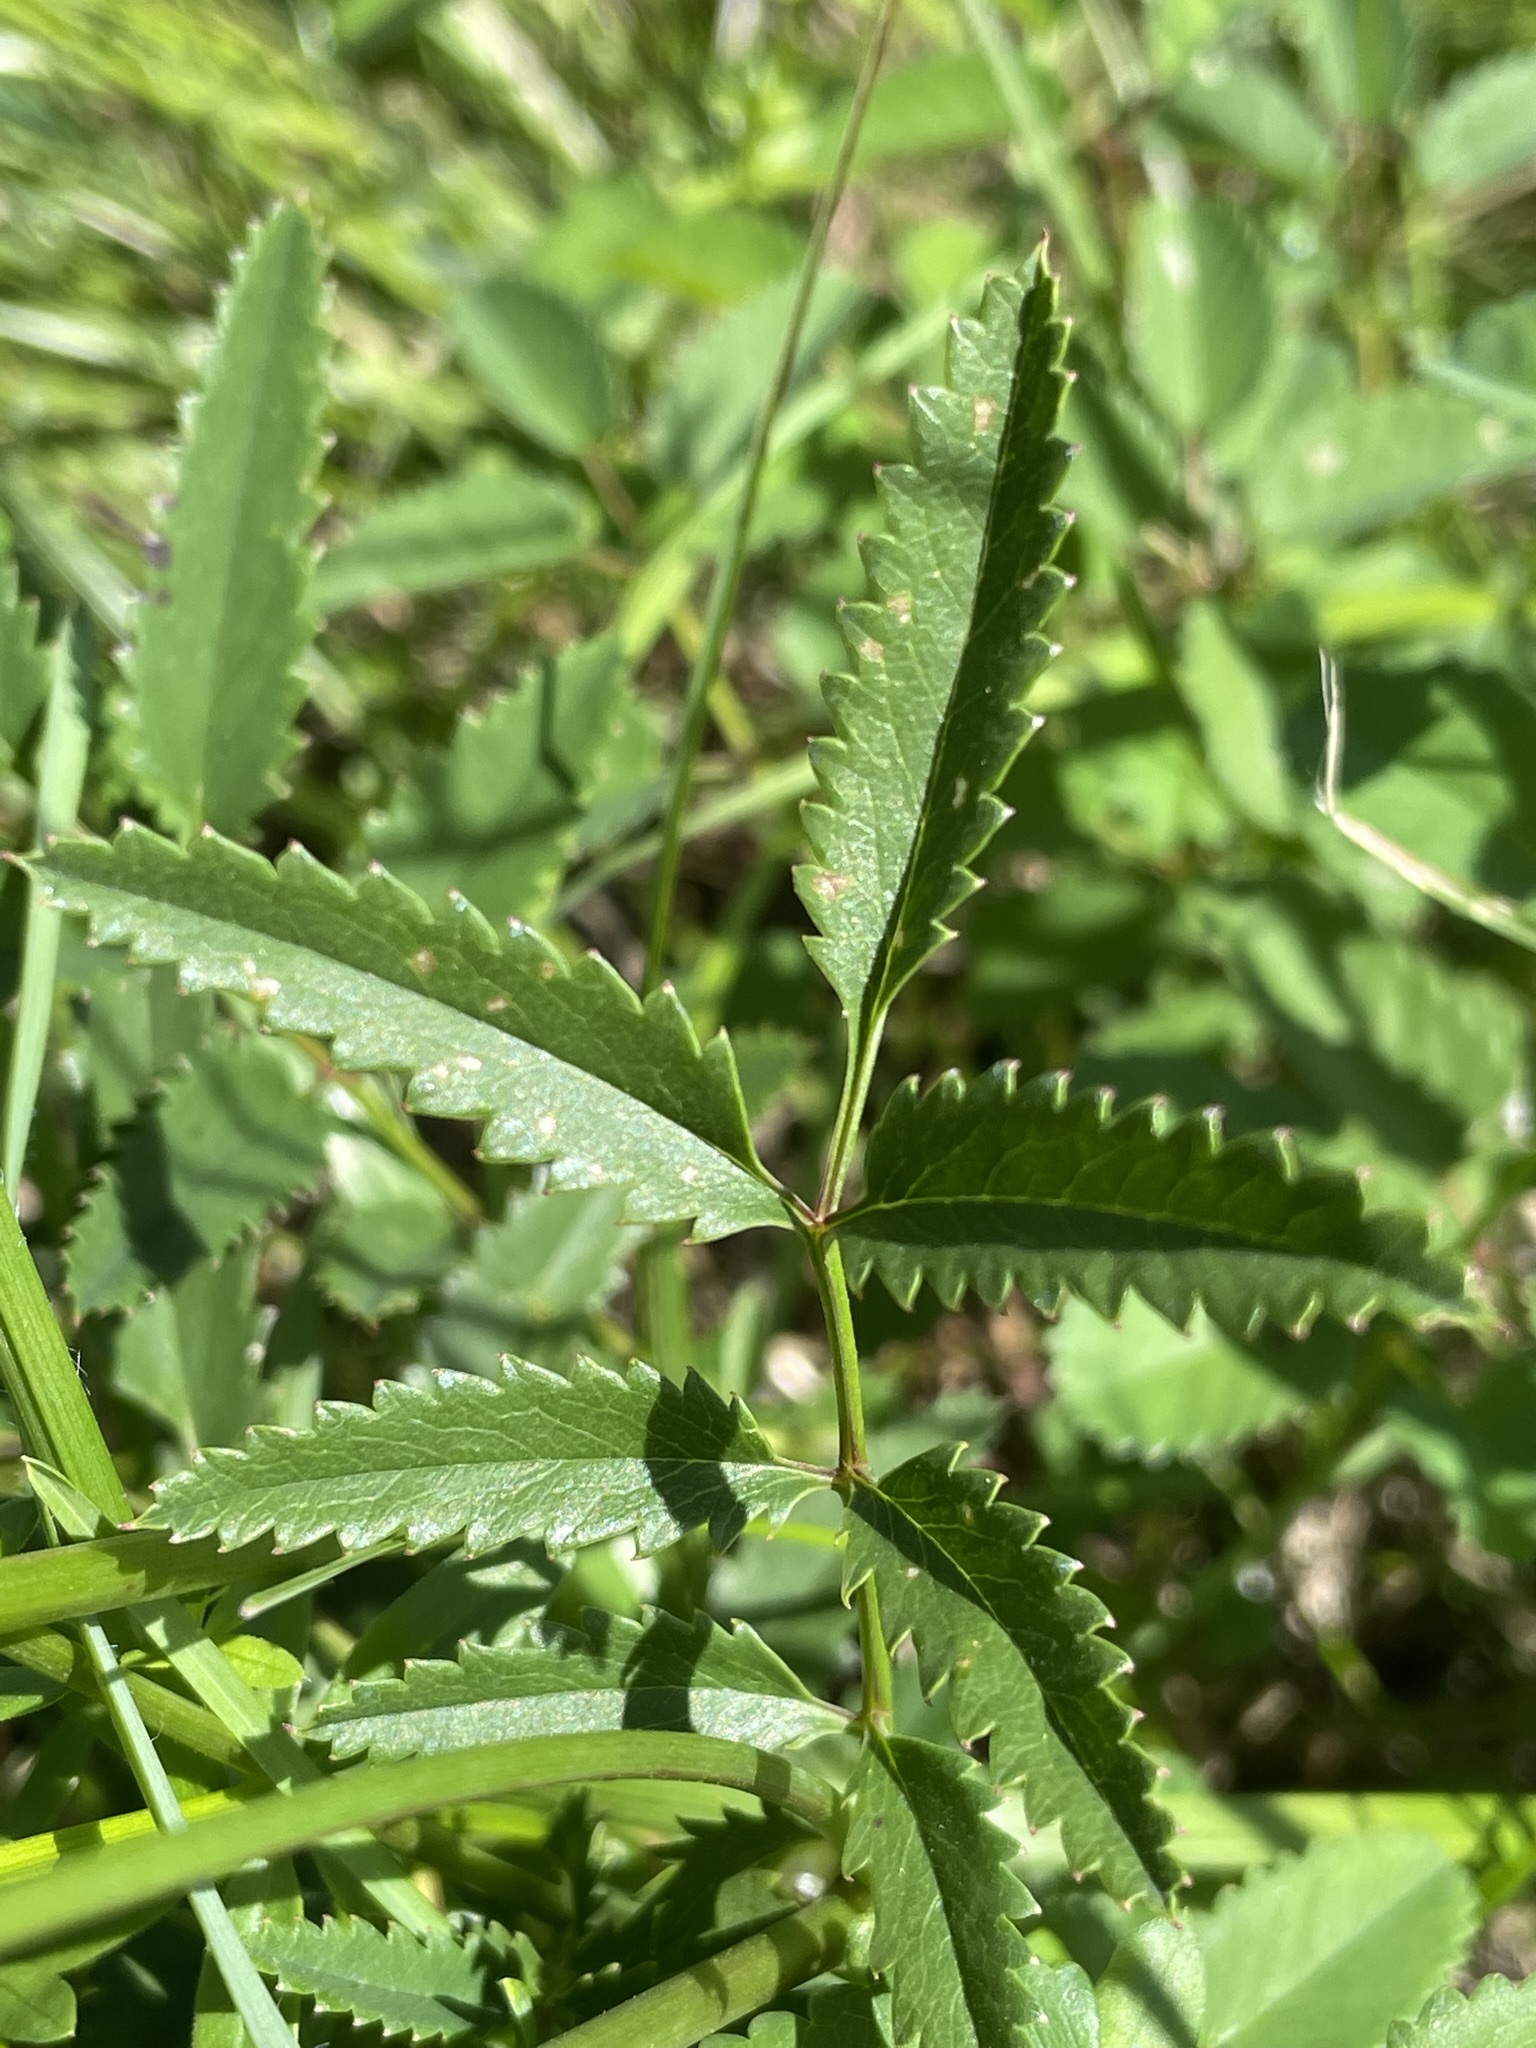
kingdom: Plantae
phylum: Tracheophyta
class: Magnoliopsida
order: Rosales
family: Rosaceae
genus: Sanguisorba
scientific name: Sanguisorba officinalis
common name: Great burnet
